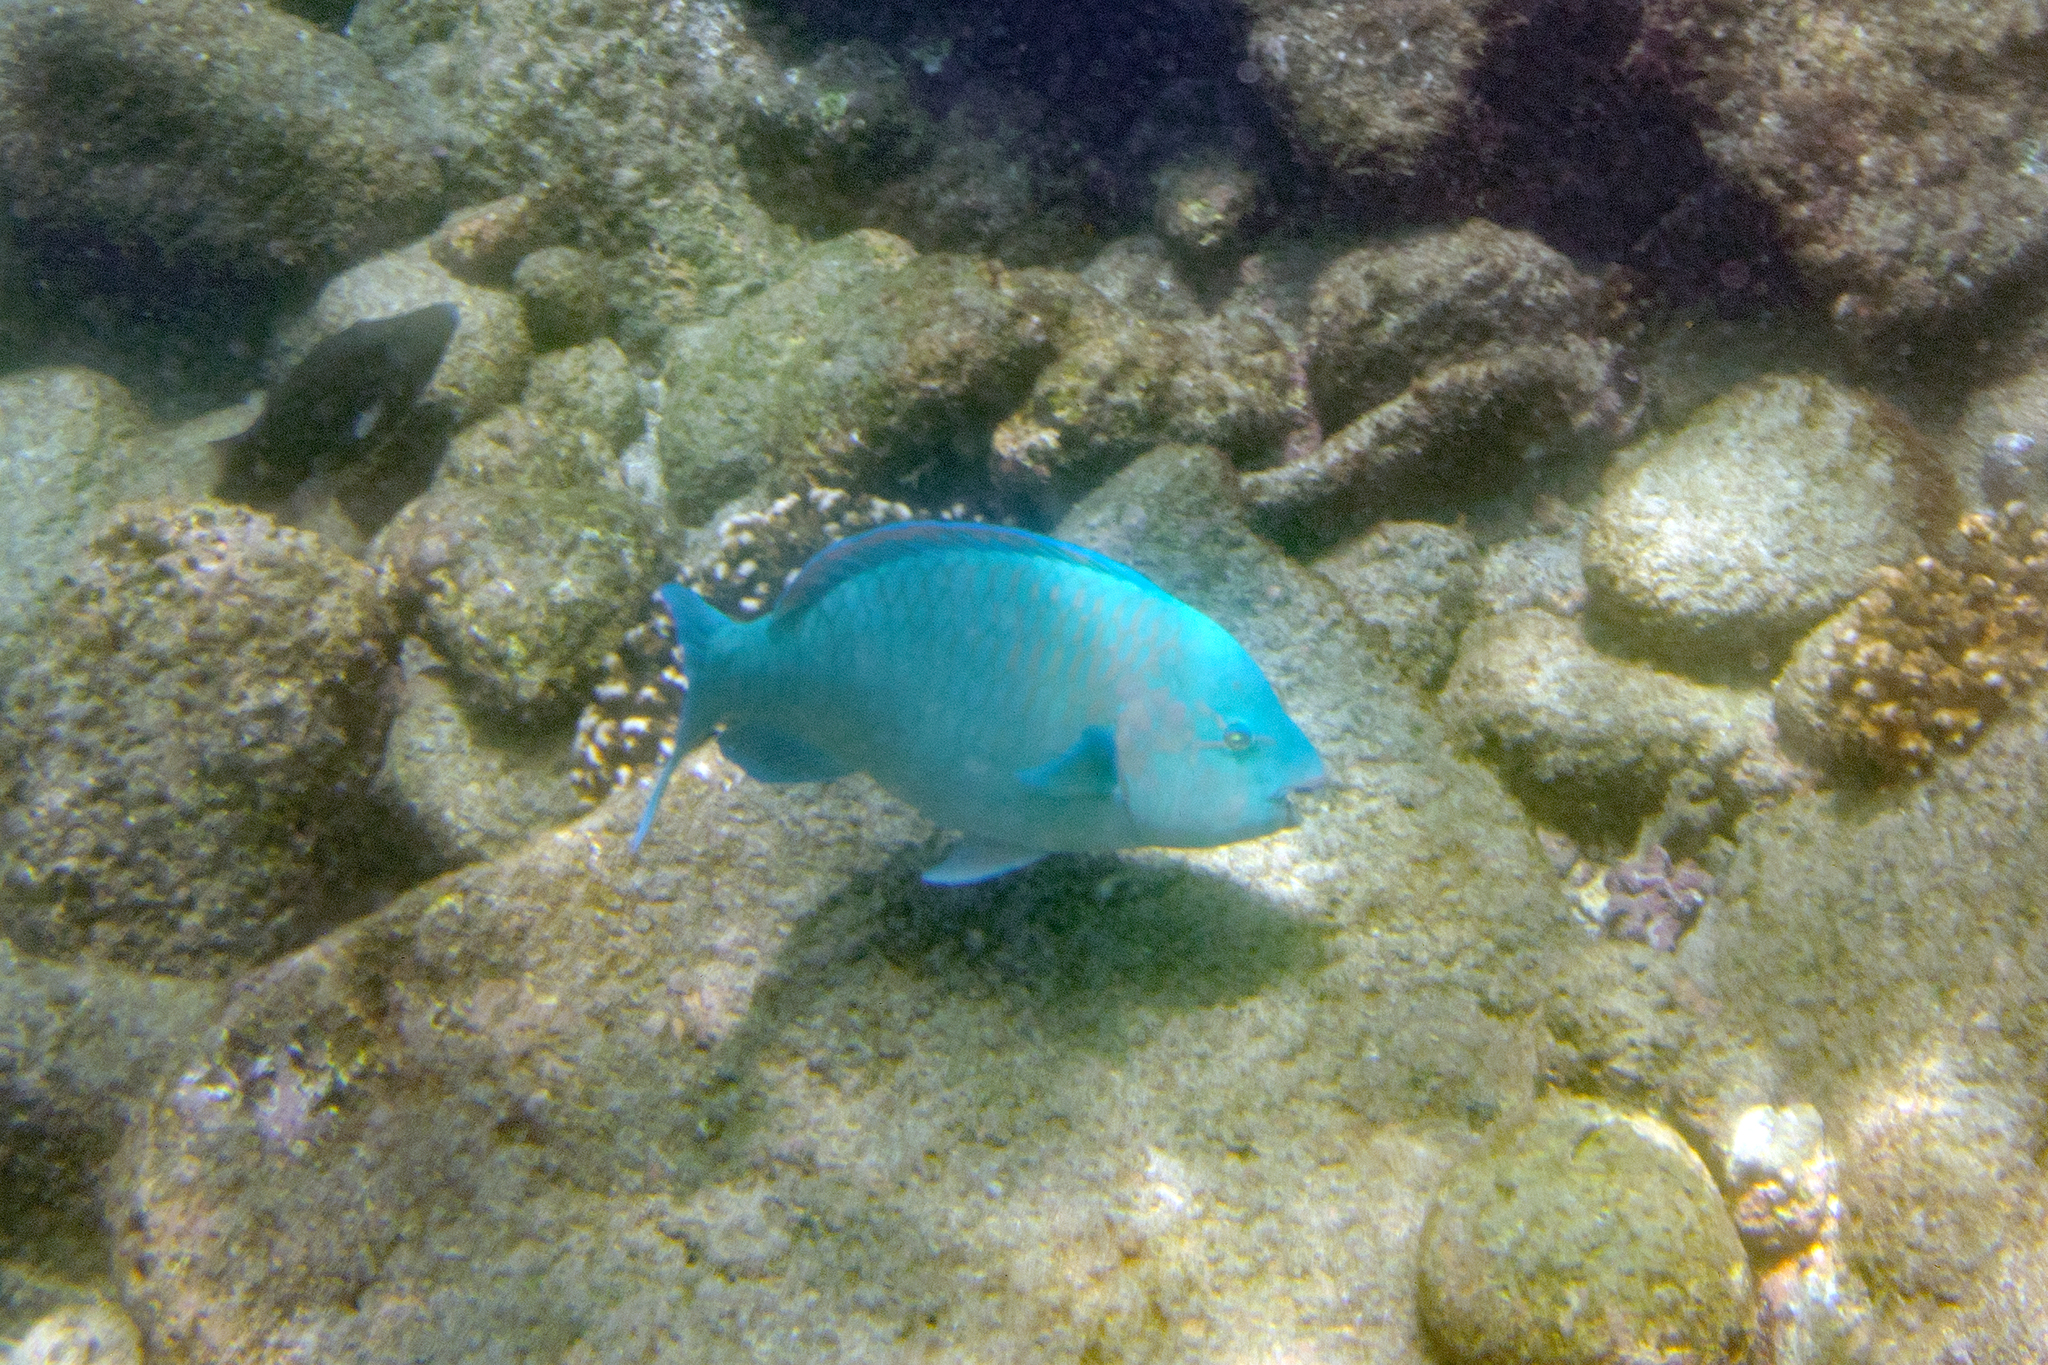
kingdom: Animalia
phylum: Chordata
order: Perciformes
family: Scaridae
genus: Scarus
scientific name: Scarus compressus
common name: Azure parrotfish
